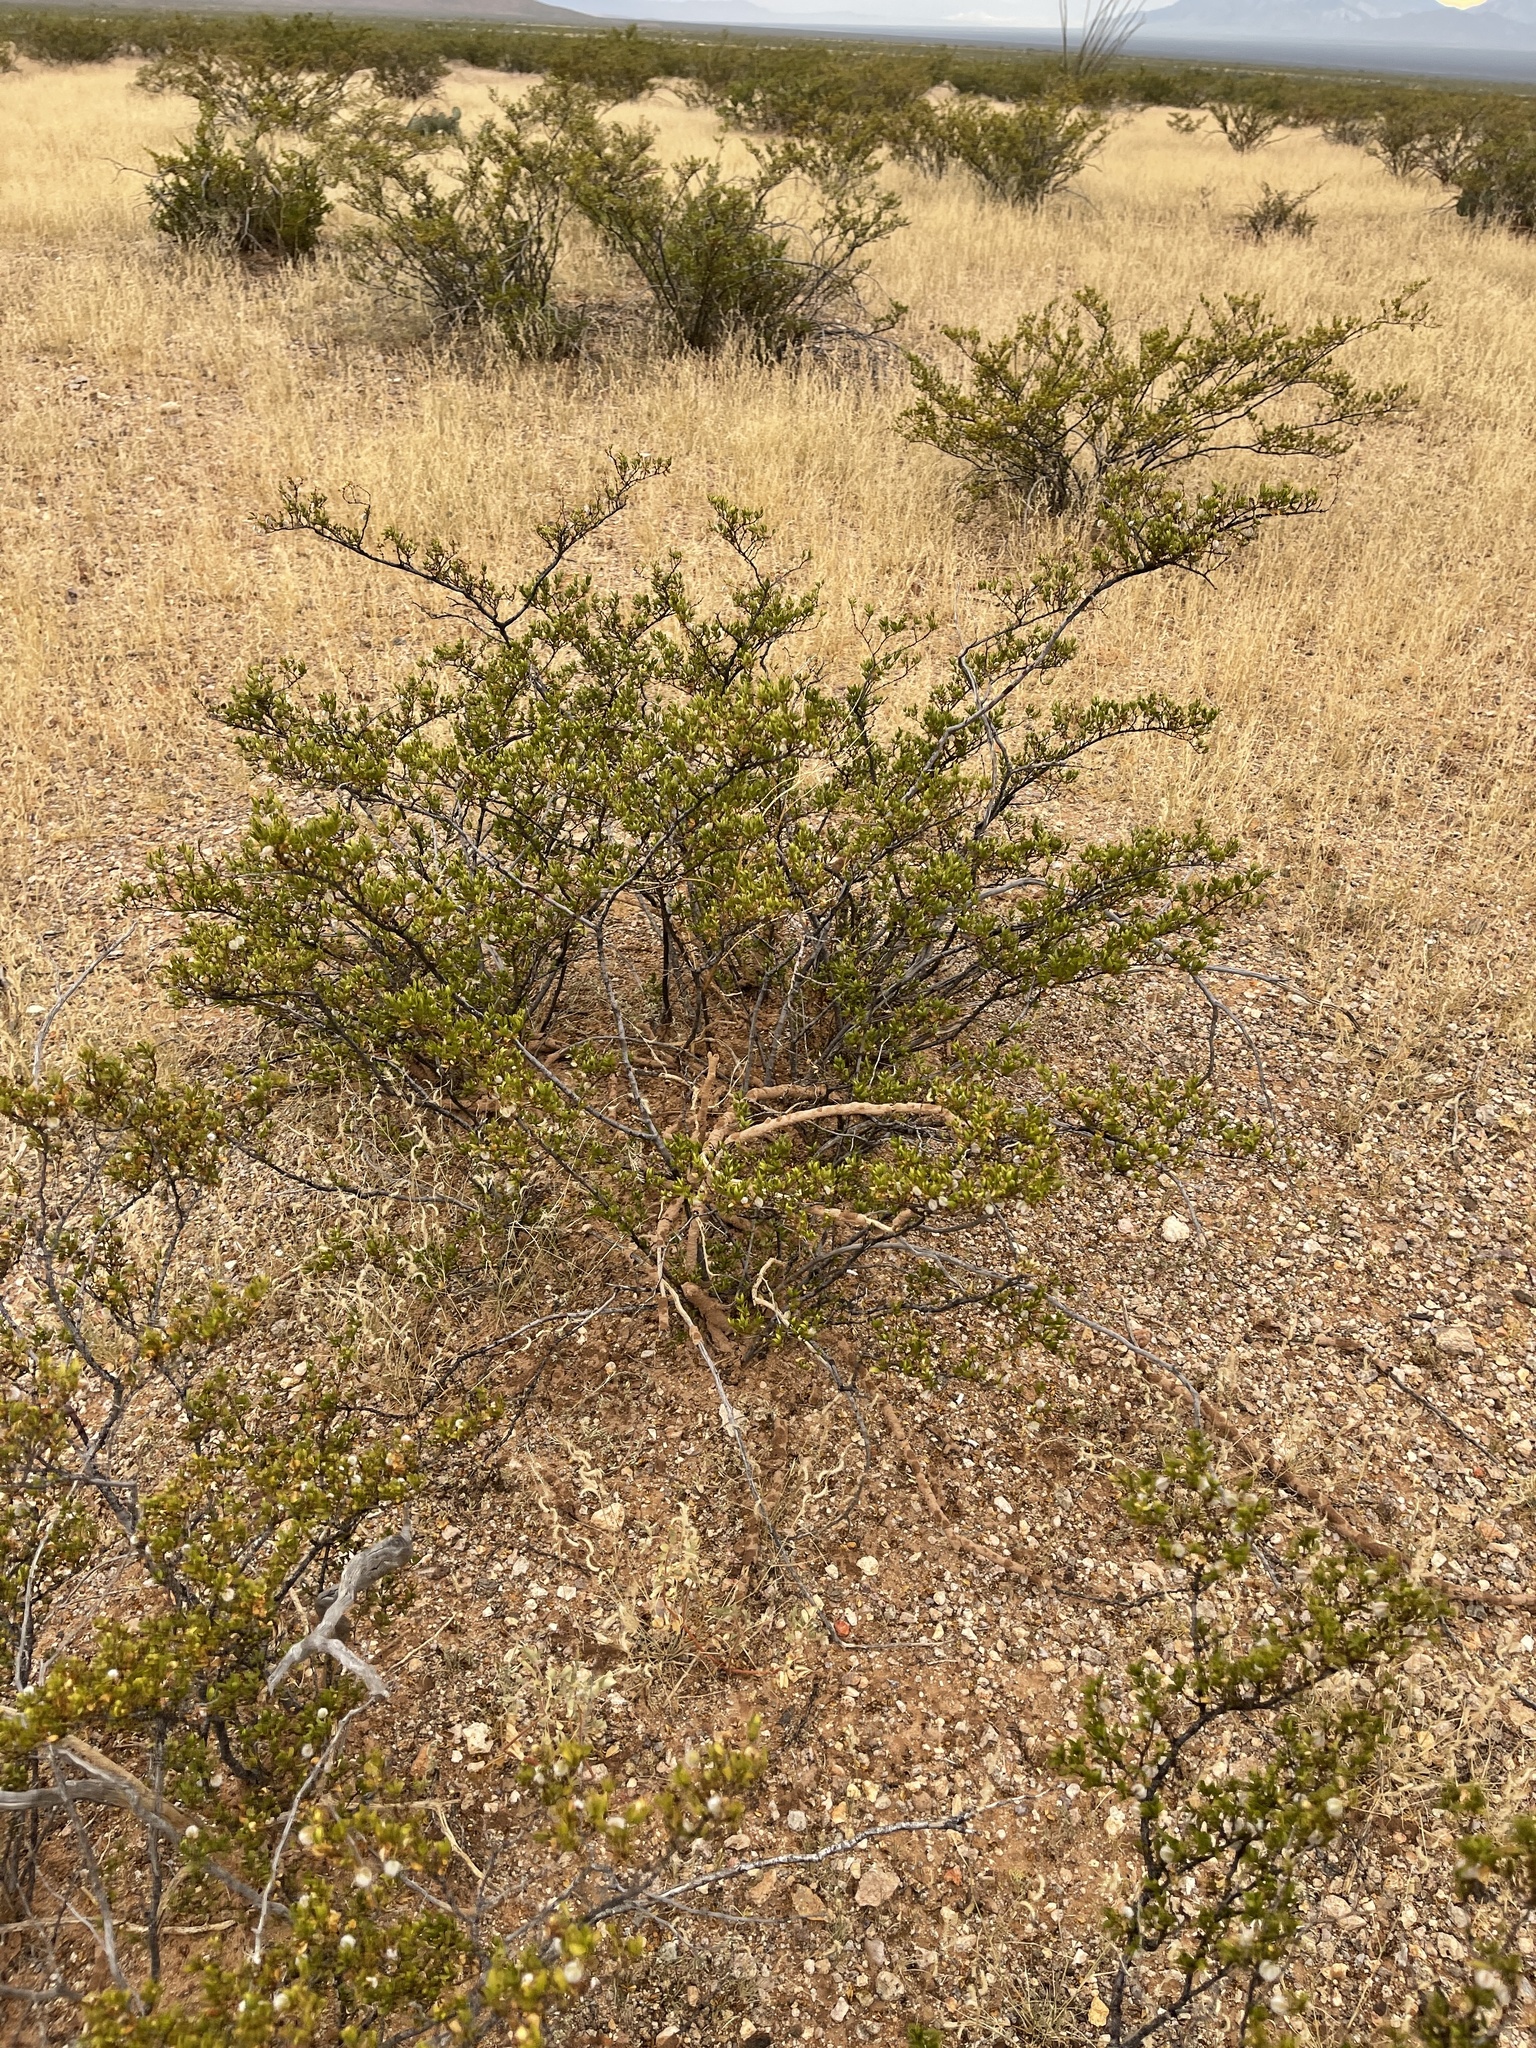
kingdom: Plantae
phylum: Tracheophyta
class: Magnoliopsida
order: Zygophyllales
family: Zygophyllaceae
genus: Larrea
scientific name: Larrea tridentata
